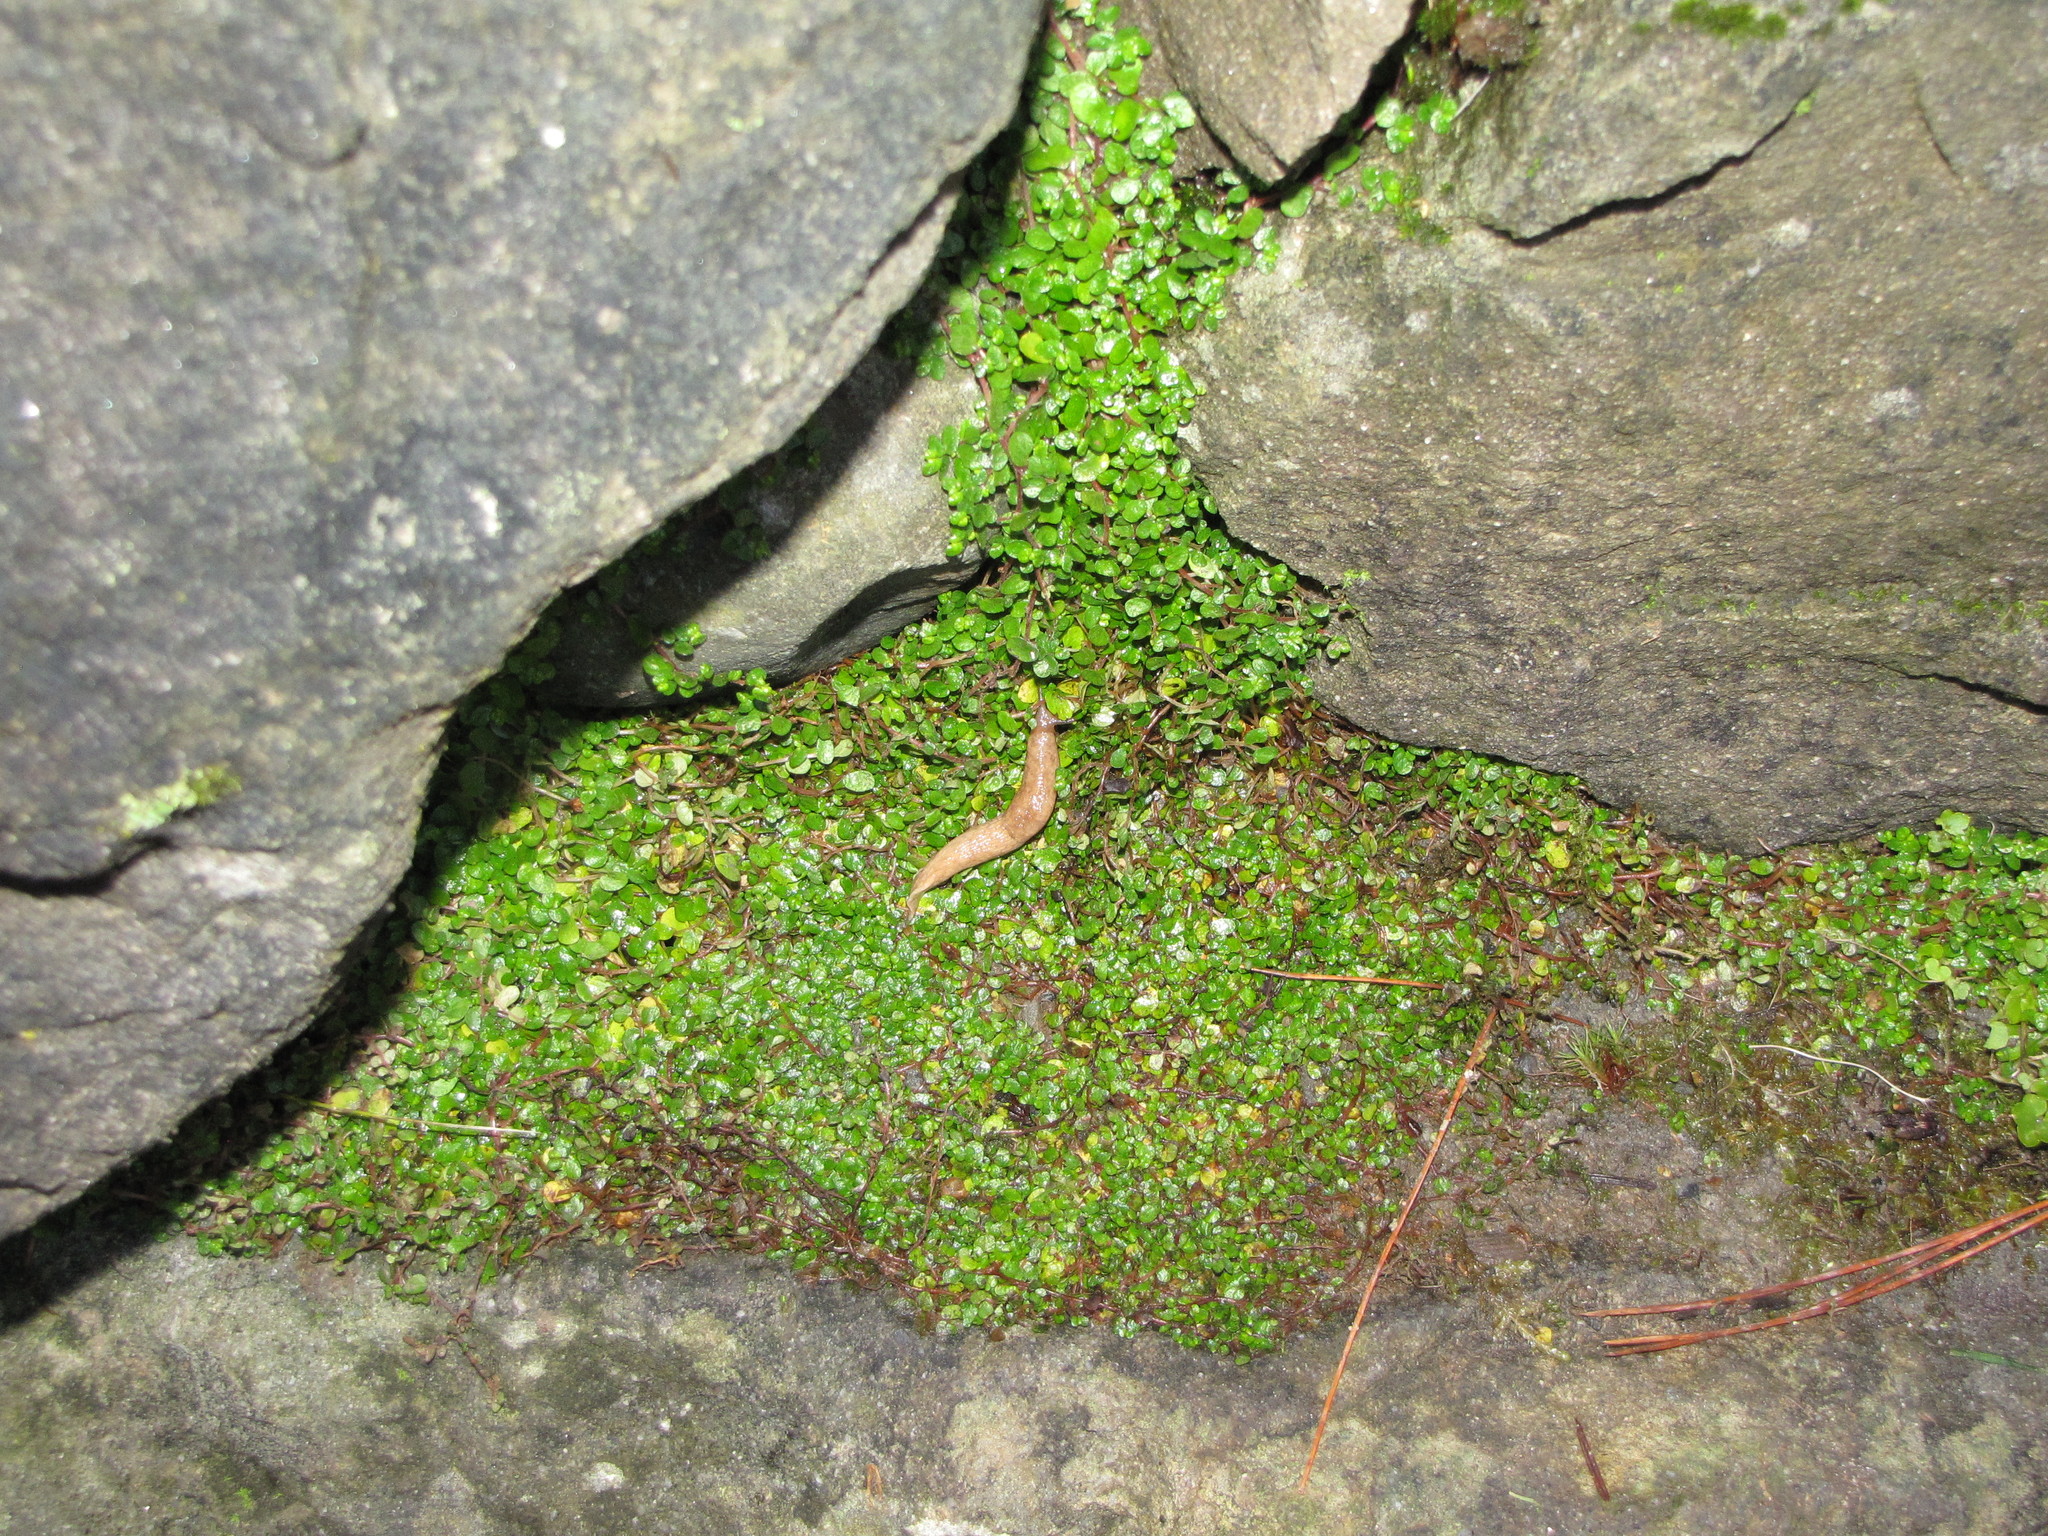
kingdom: Animalia
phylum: Mollusca
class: Gastropoda
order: Stylommatophora
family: Agriolimacidae
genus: Deroceras
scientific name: Deroceras reticulatum
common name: Gray field slug
